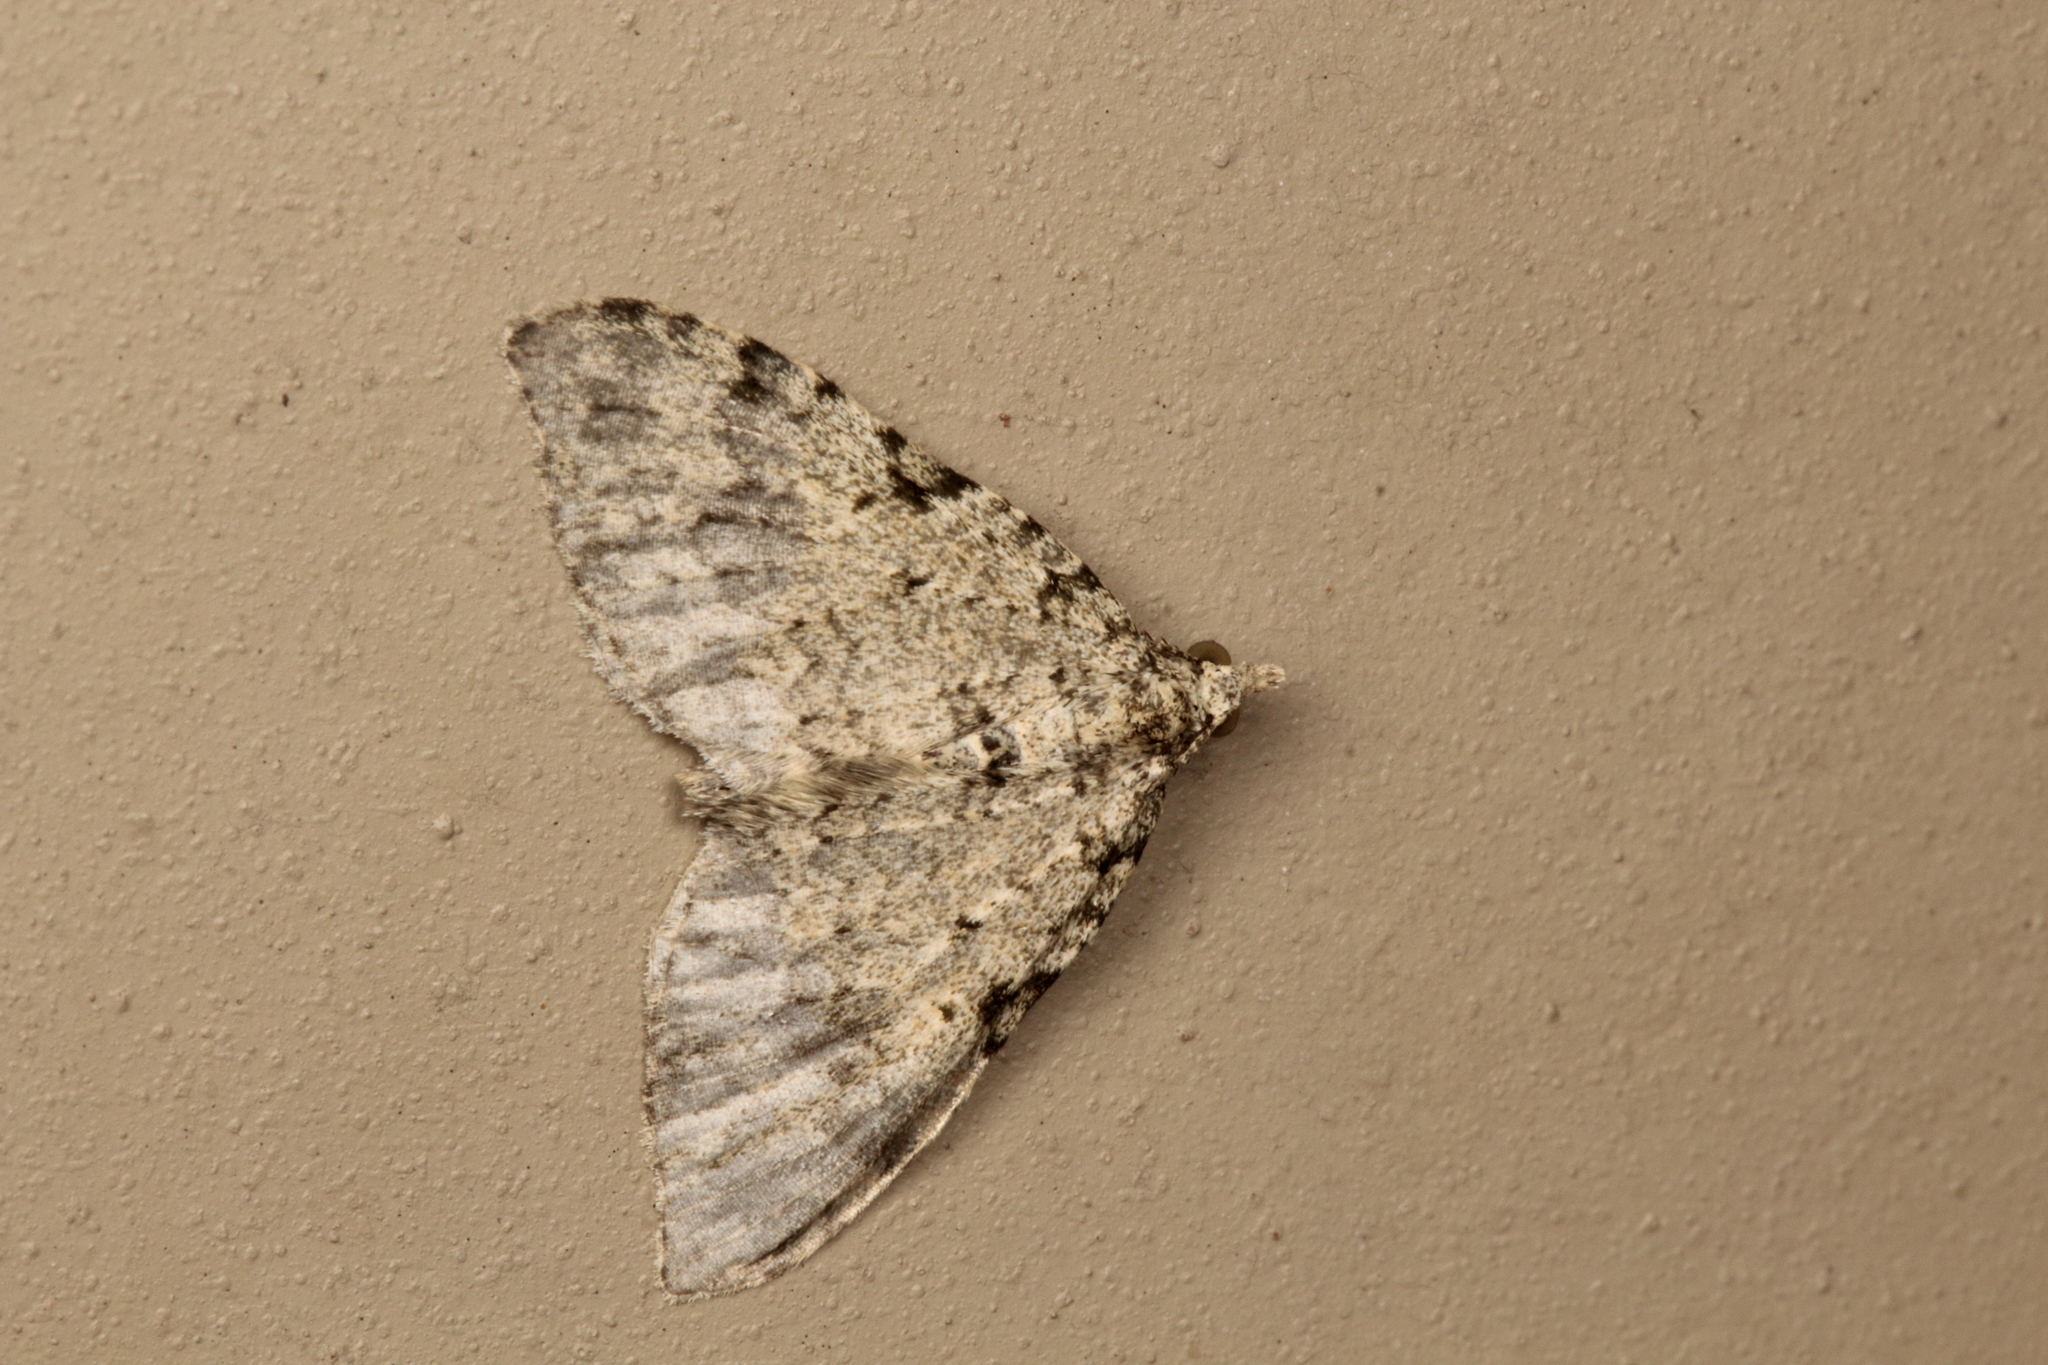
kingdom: Animalia
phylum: Arthropoda
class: Insecta
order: Lepidoptera
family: Geometridae
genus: Helastia
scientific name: Helastia cinerearia
